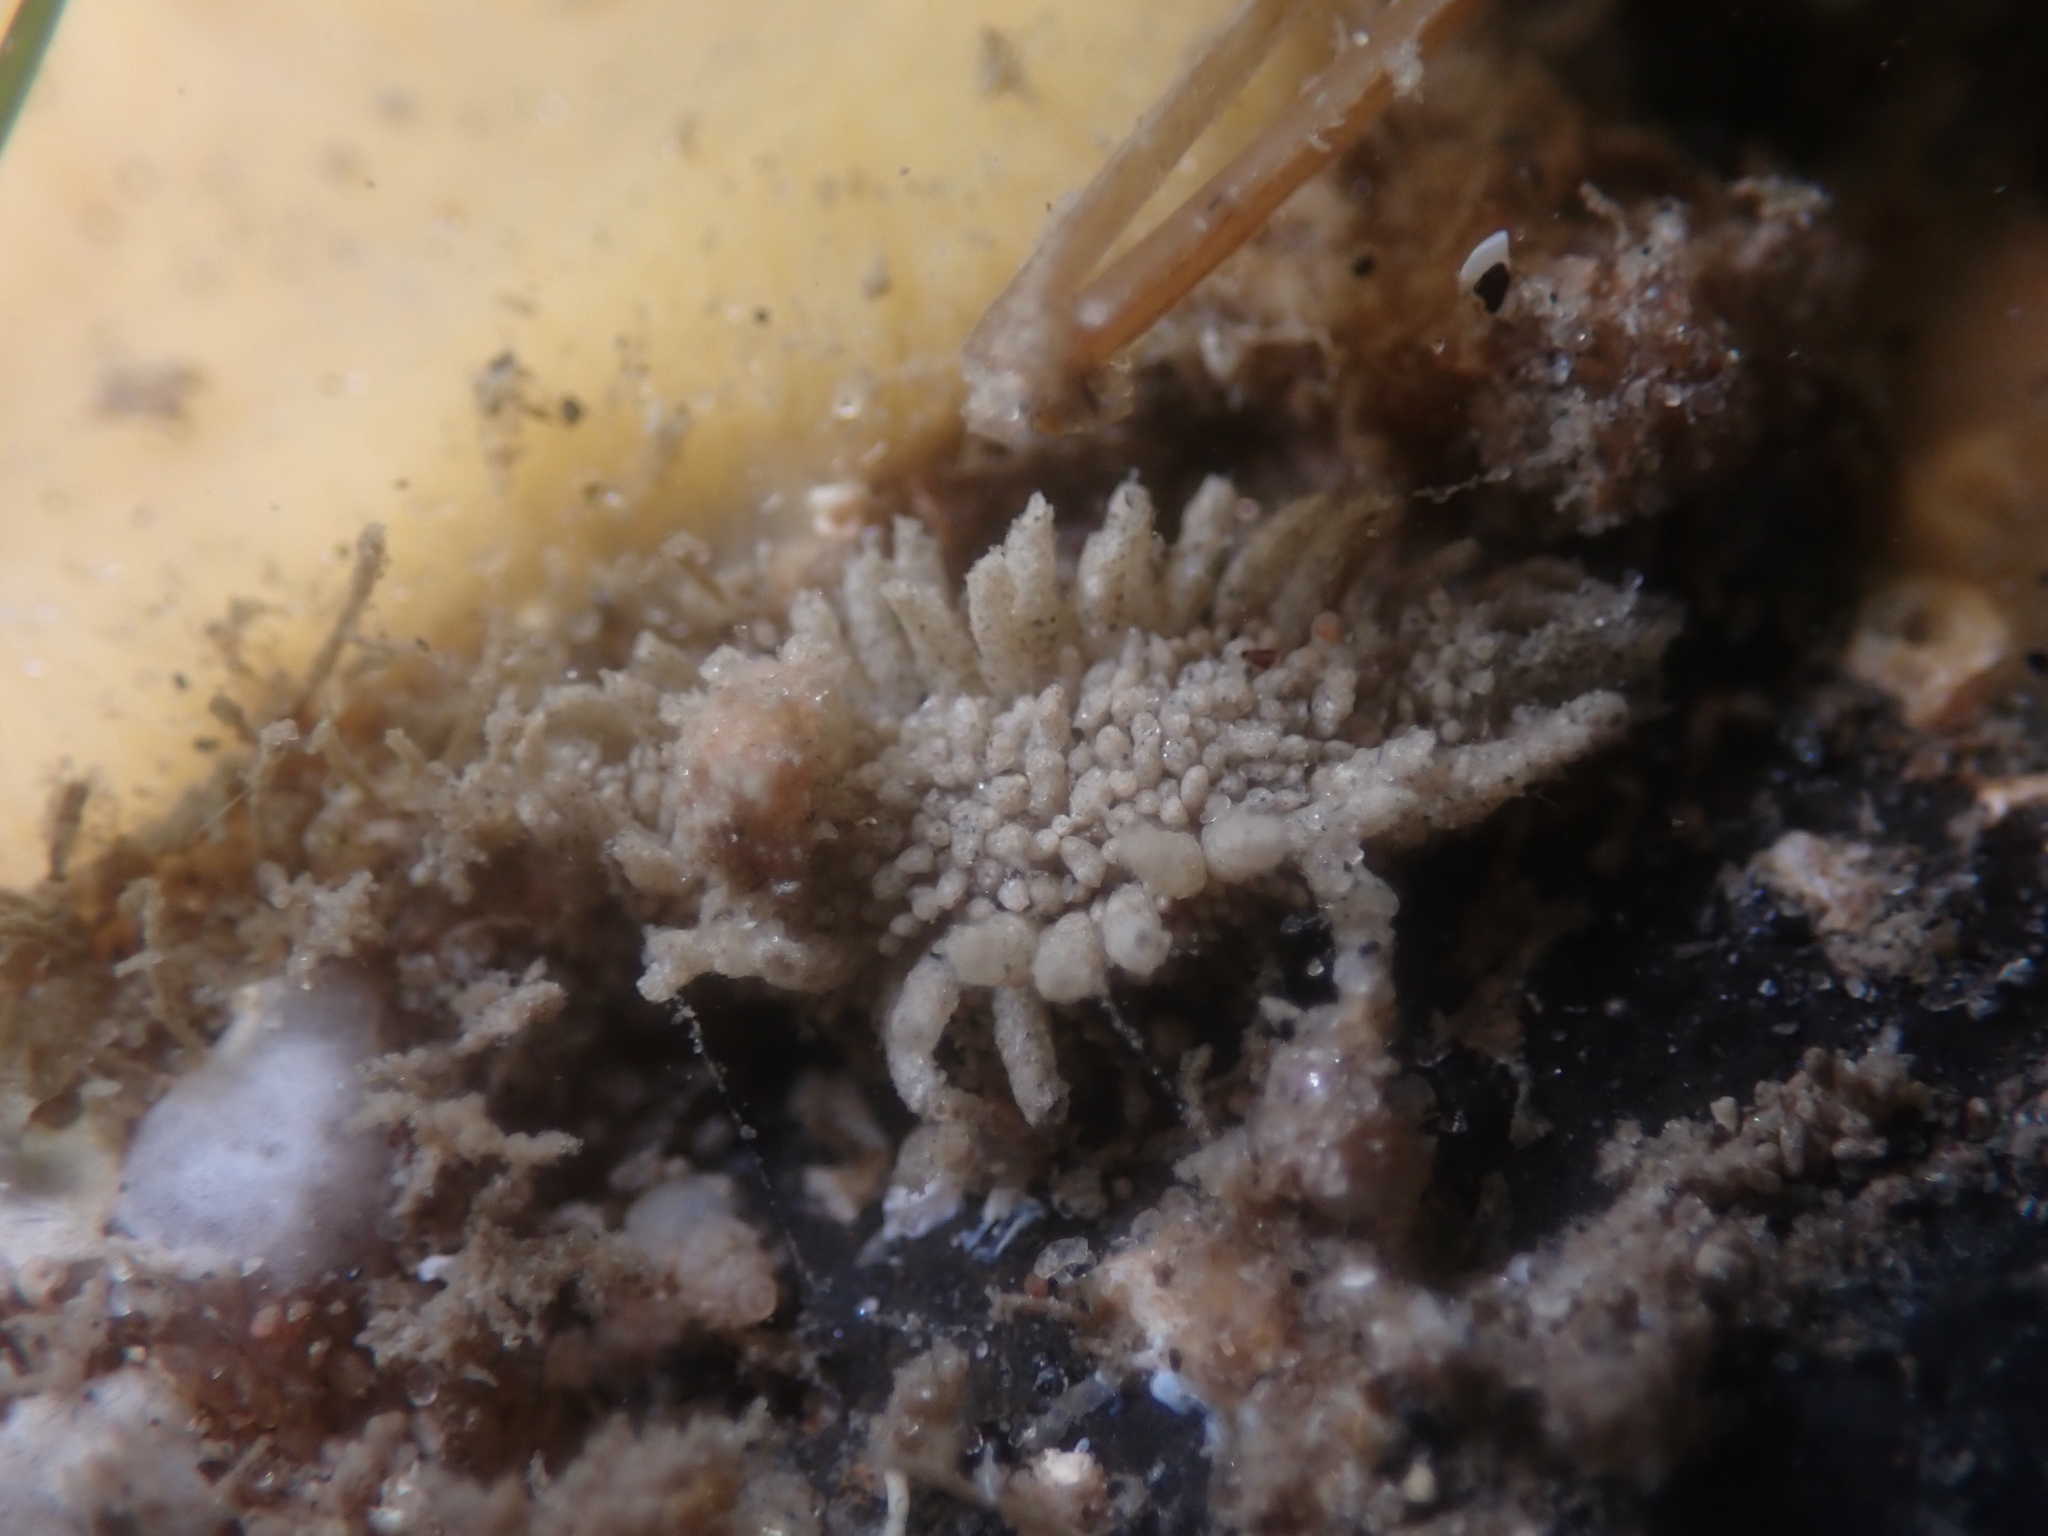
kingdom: Animalia
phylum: Annelida
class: Polychaeta
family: Flabelligeridae
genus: Flabelliderma
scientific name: Flabelliderma ockeri
